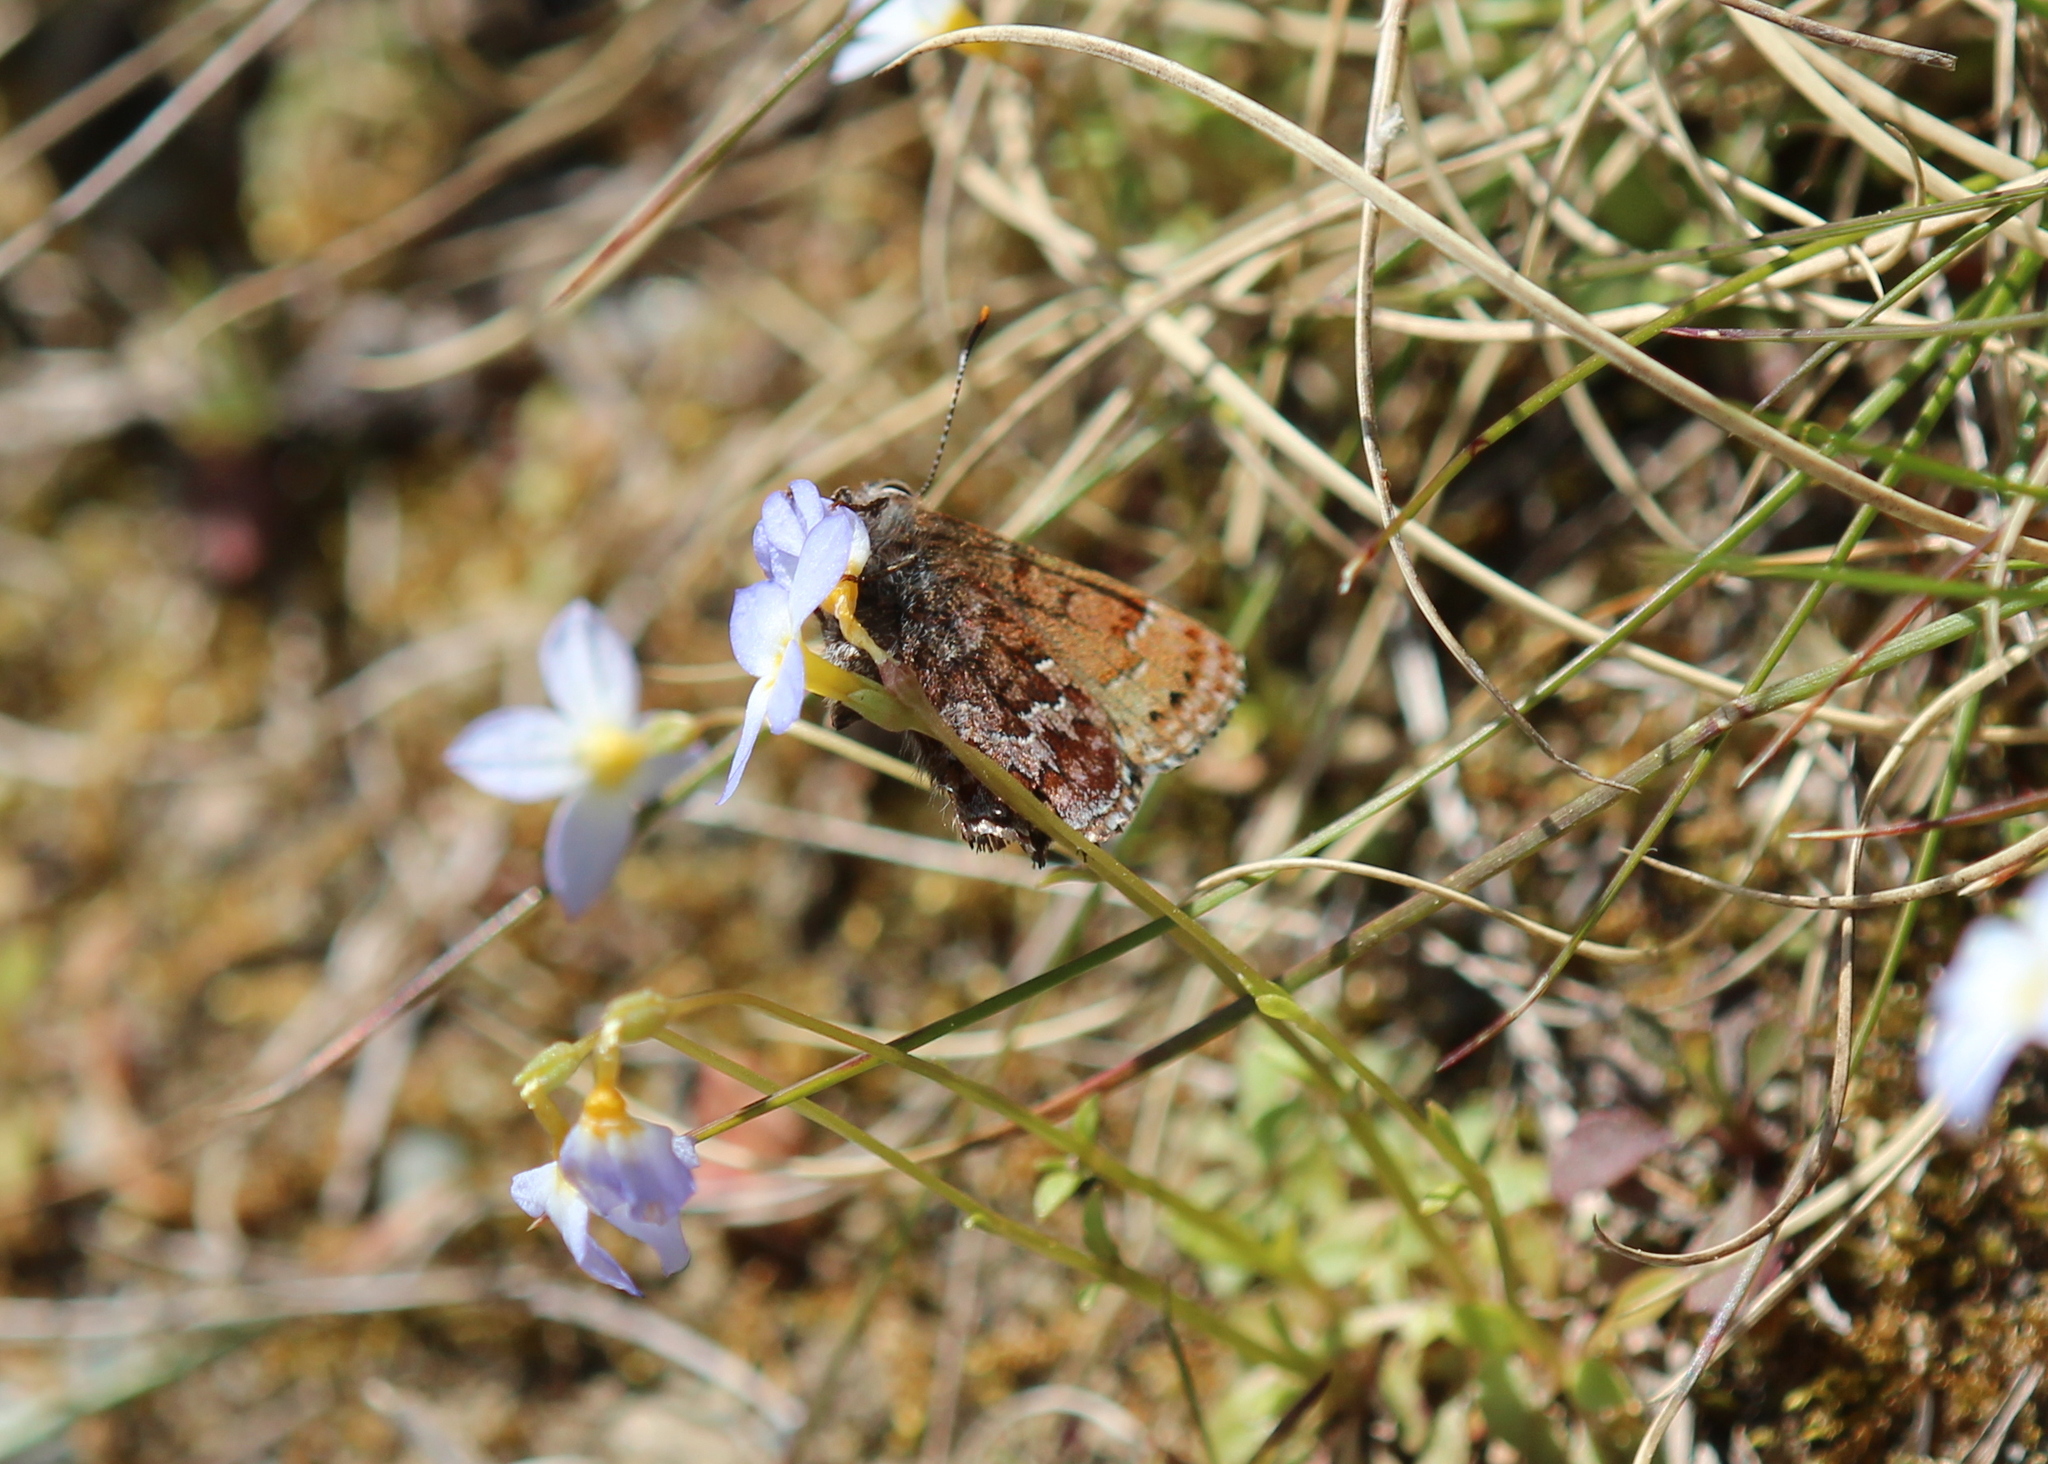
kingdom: Animalia
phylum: Arthropoda
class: Insecta
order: Lepidoptera
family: Lycaenidae
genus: Incisalia
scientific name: Incisalia niphon
